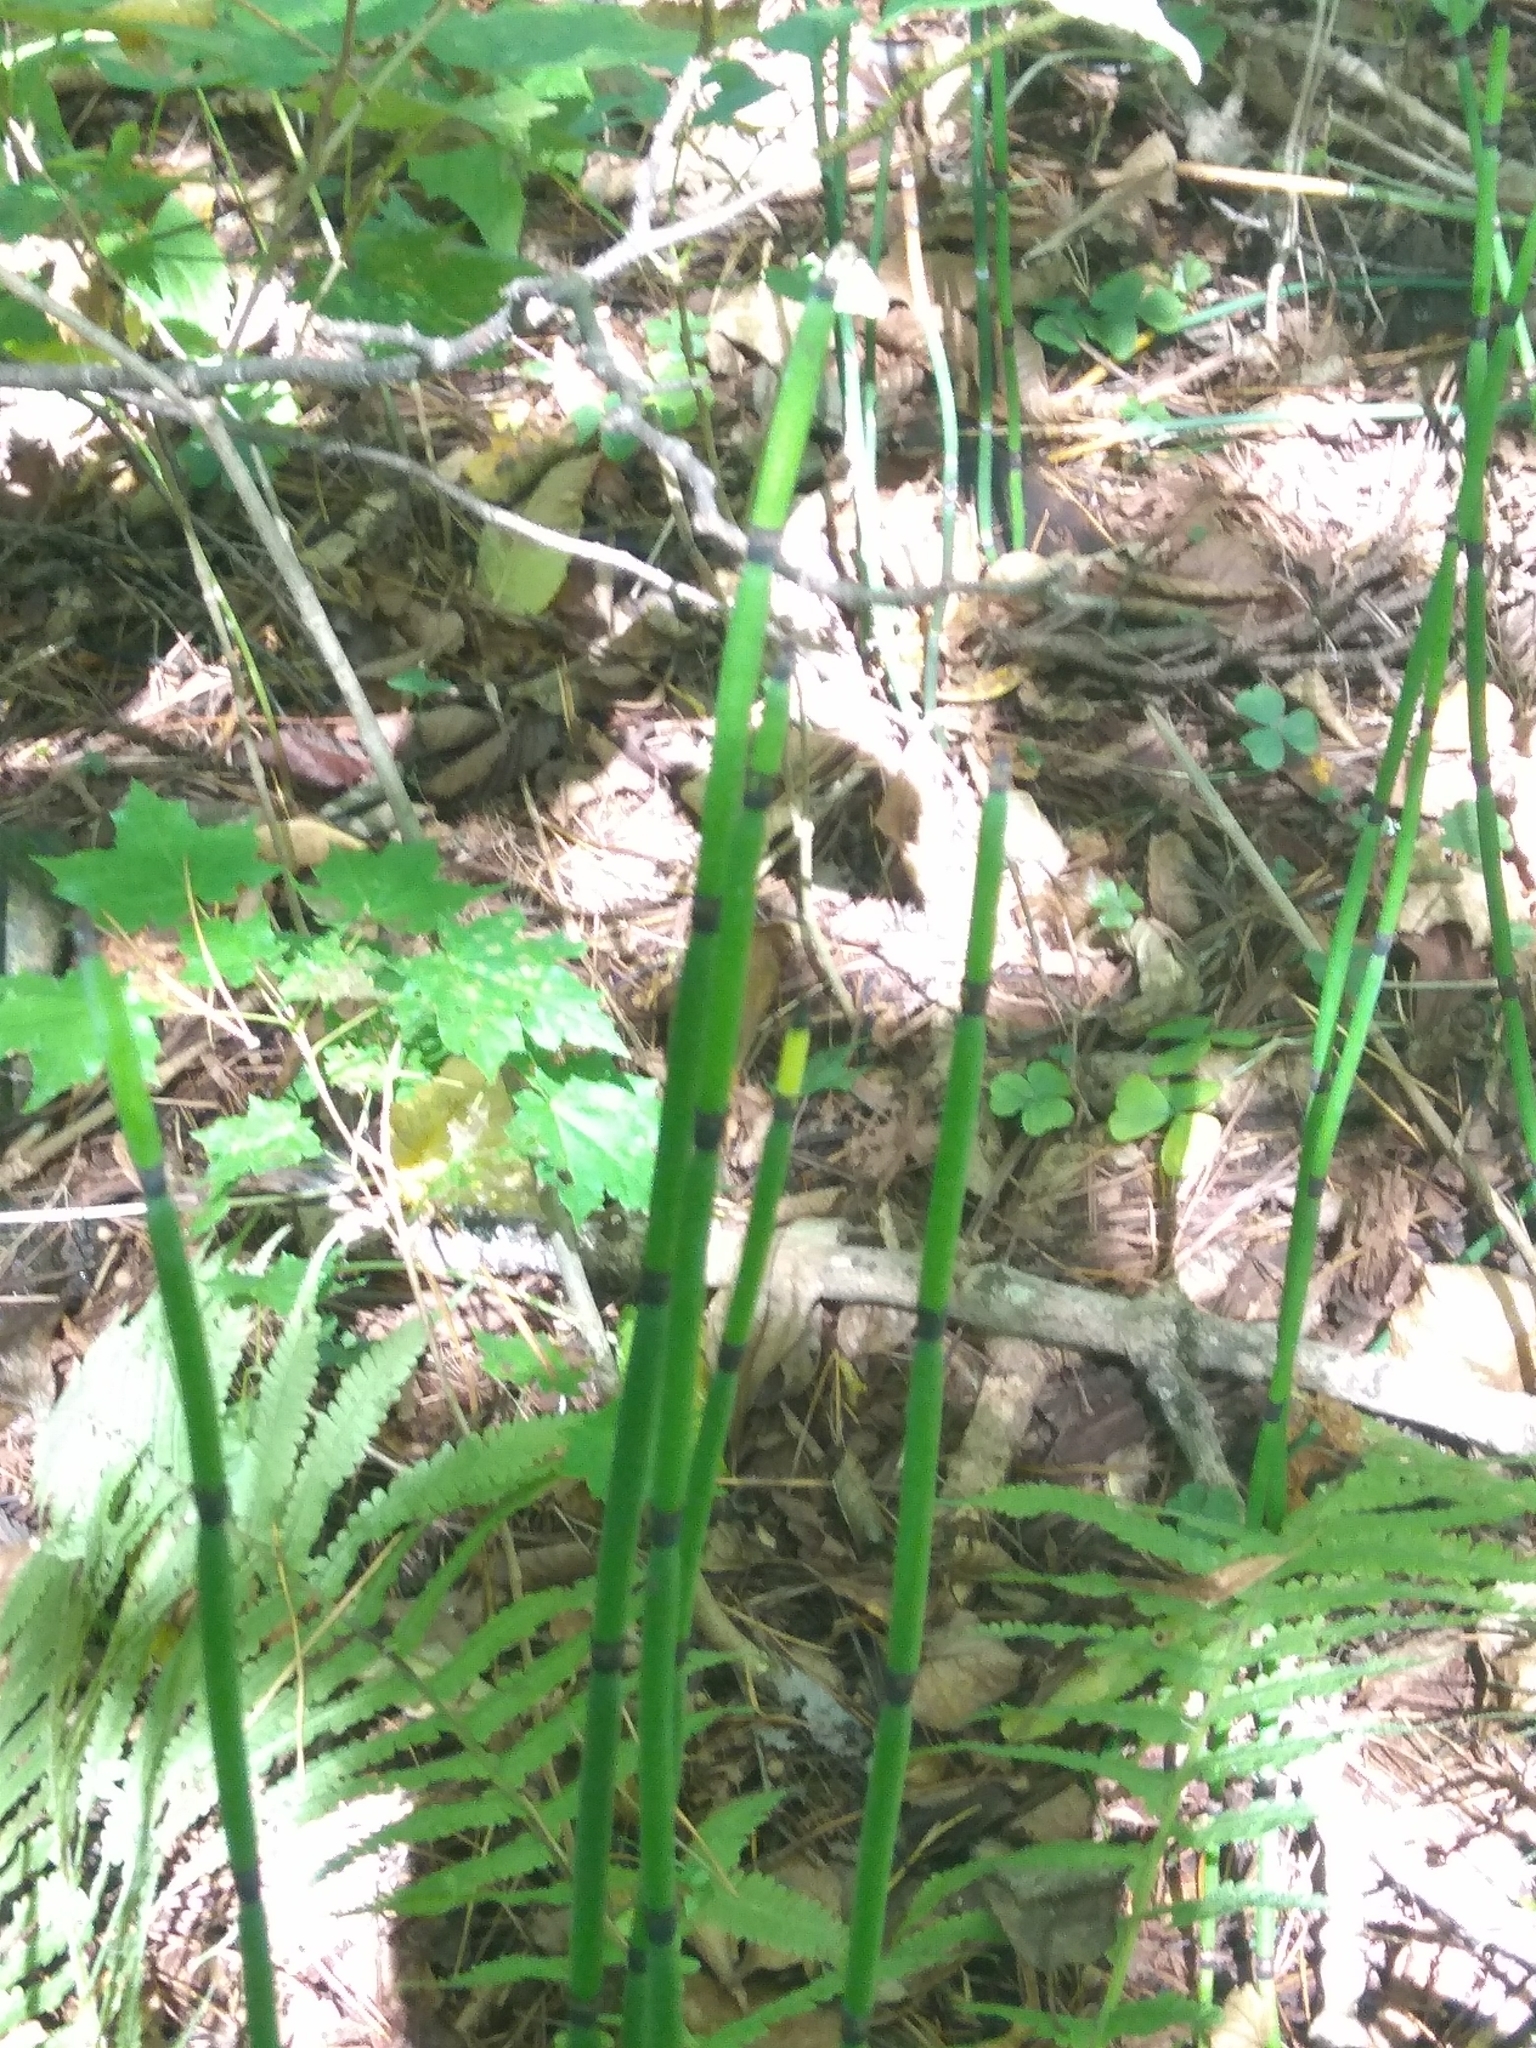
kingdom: Plantae
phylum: Tracheophyta
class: Polypodiopsida
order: Equisetales
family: Equisetaceae
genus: Equisetum
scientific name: Equisetum hyemale
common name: Rough horsetail
